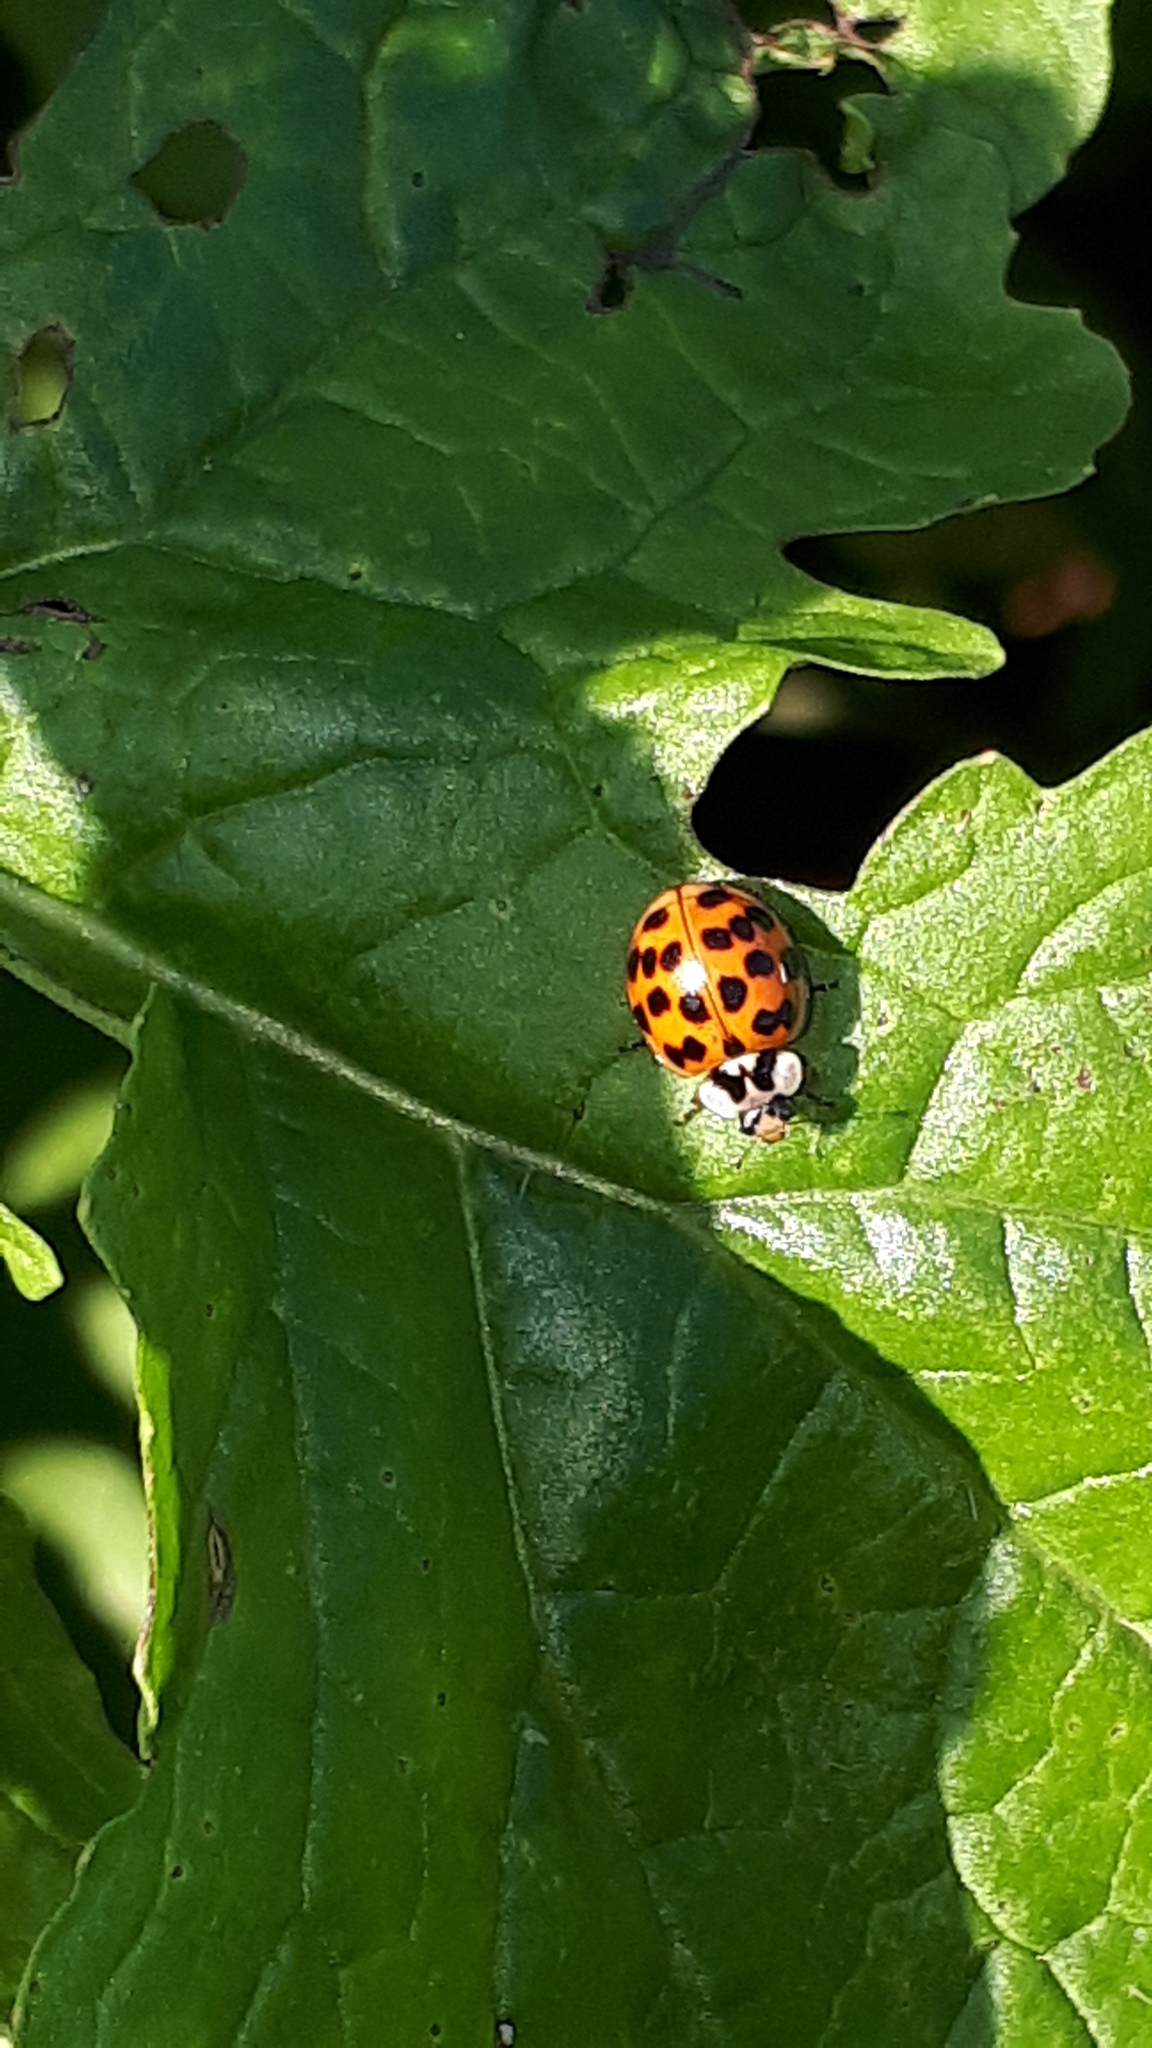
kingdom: Animalia
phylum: Arthropoda
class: Insecta
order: Coleoptera
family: Coccinellidae
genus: Harmonia
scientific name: Harmonia axyridis
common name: Harlequin ladybird
